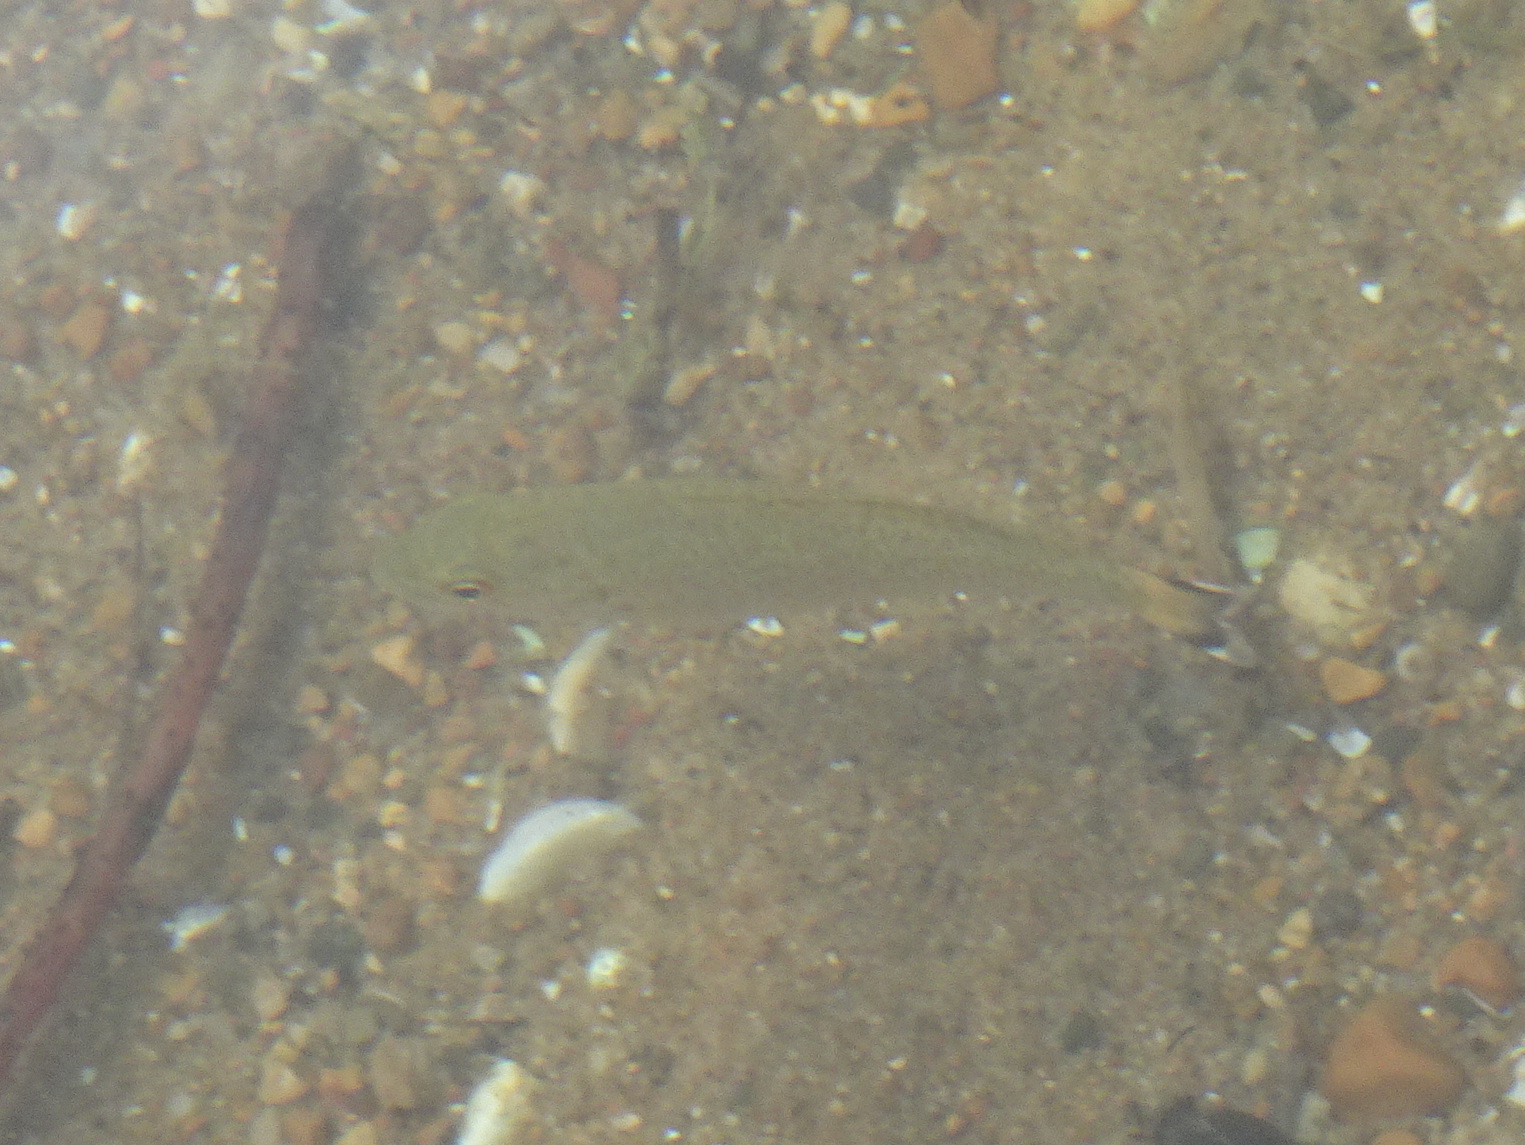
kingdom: Animalia
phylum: Chordata
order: Perciformes
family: Centrarchidae
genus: Micropterus
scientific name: Micropterus dolomieu
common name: Smallmouth bass
